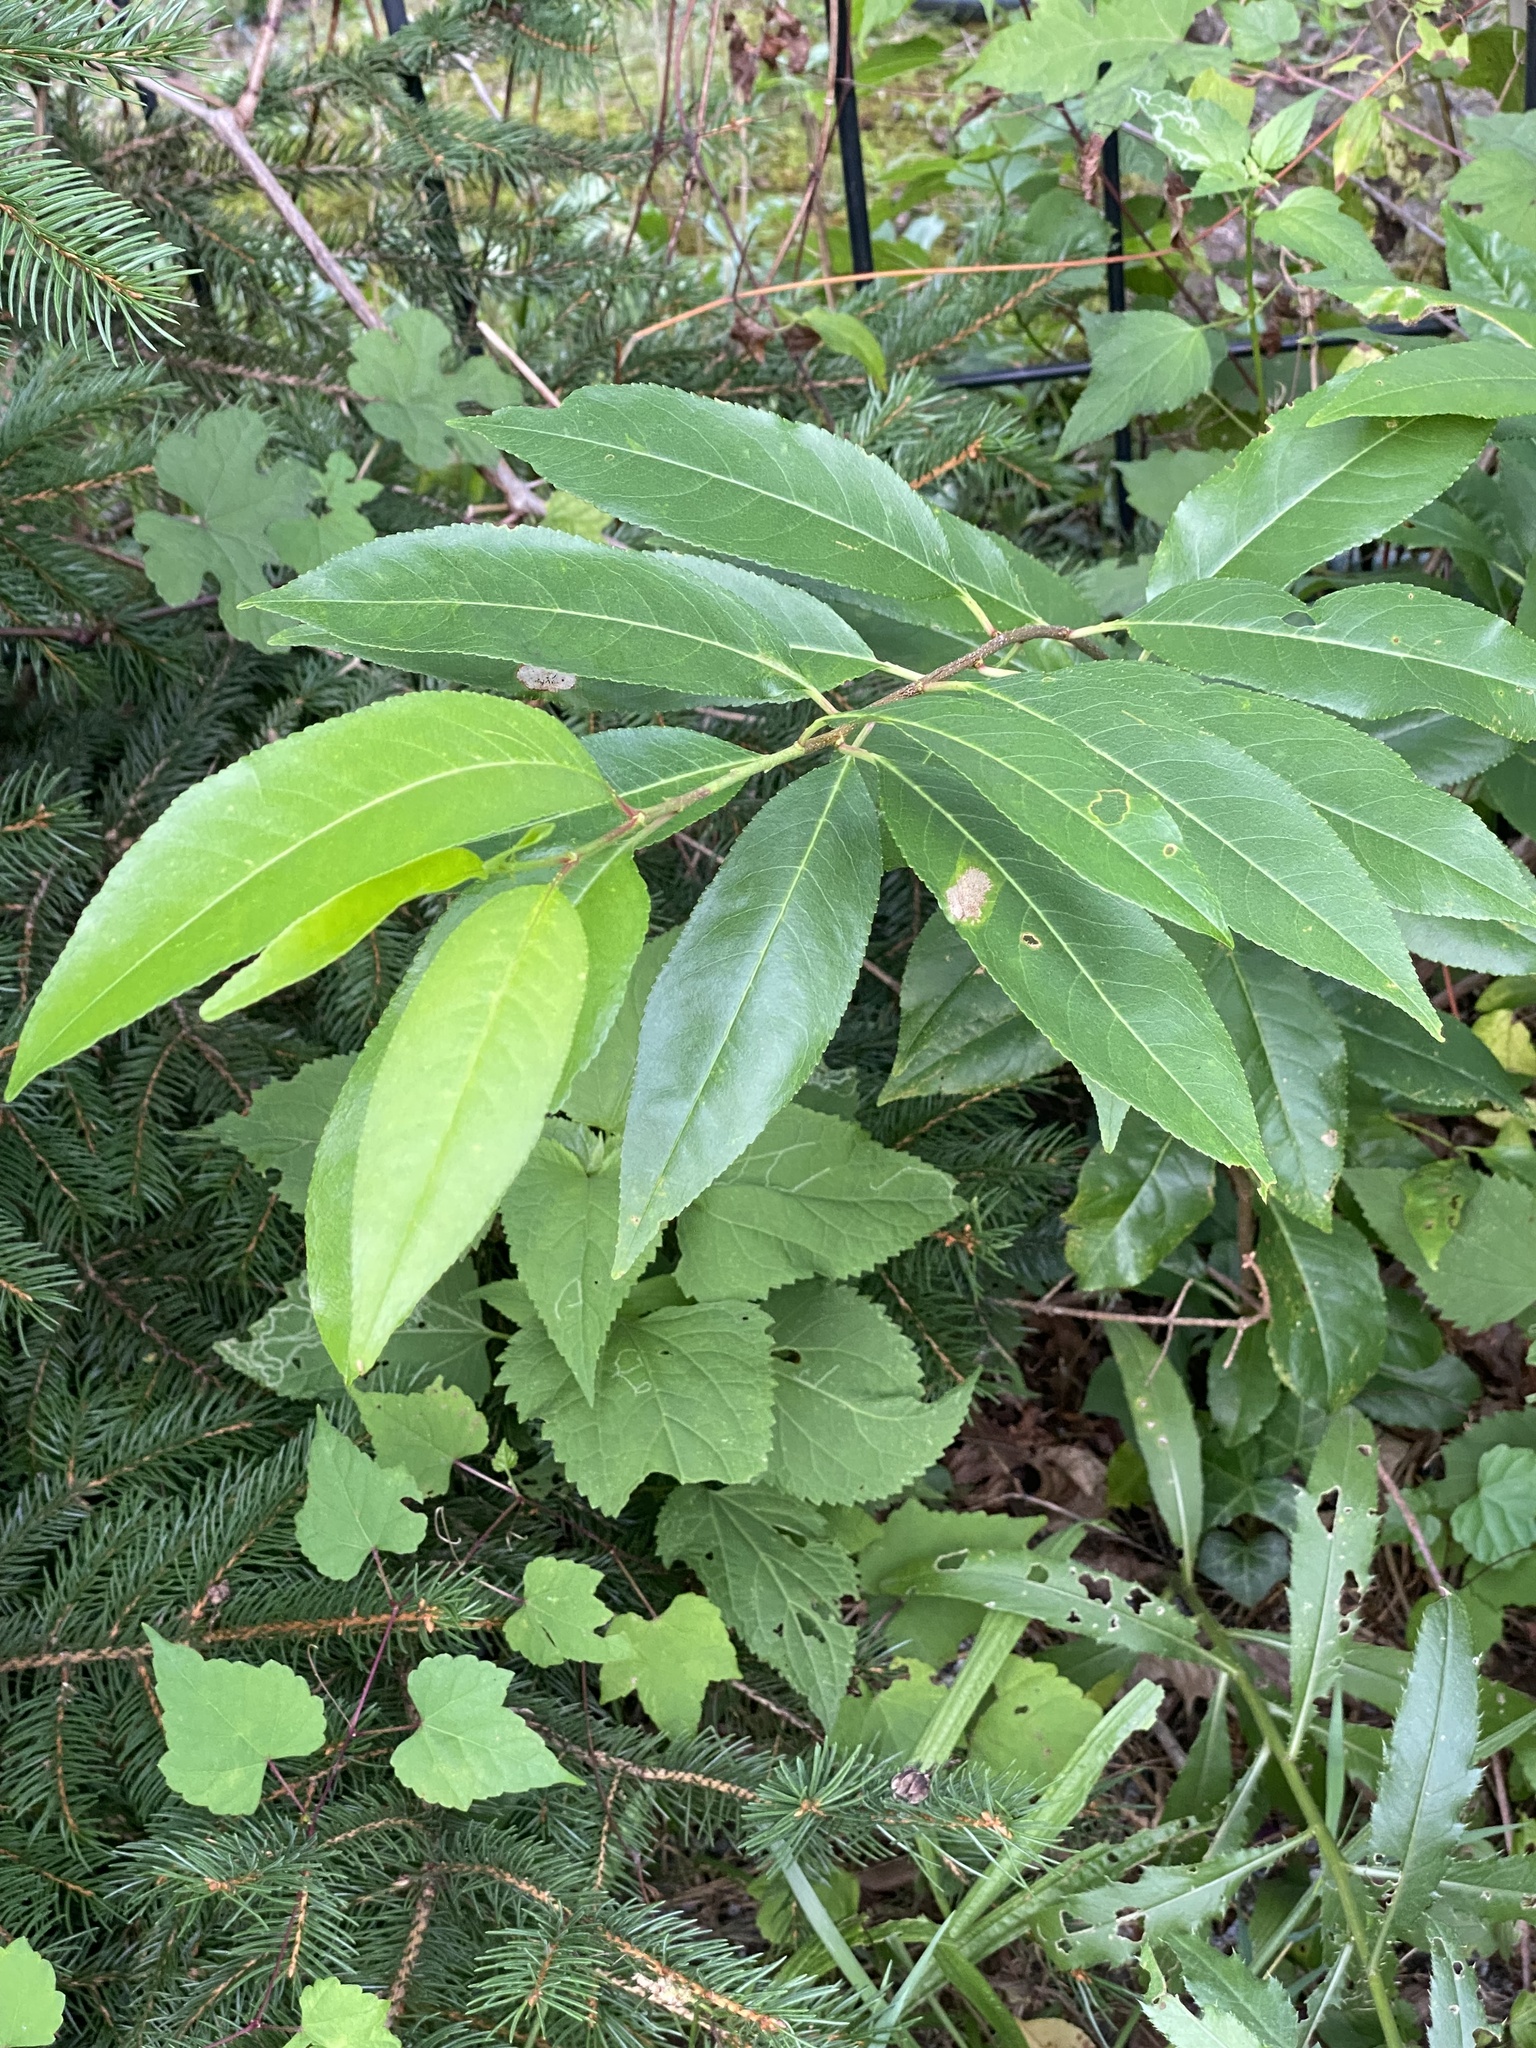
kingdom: Plantae
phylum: Tracheophyta
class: Magnoliopsida
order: Rosales
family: Rosaceae
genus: Prunus
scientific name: Prunus serotina
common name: Black cherry
